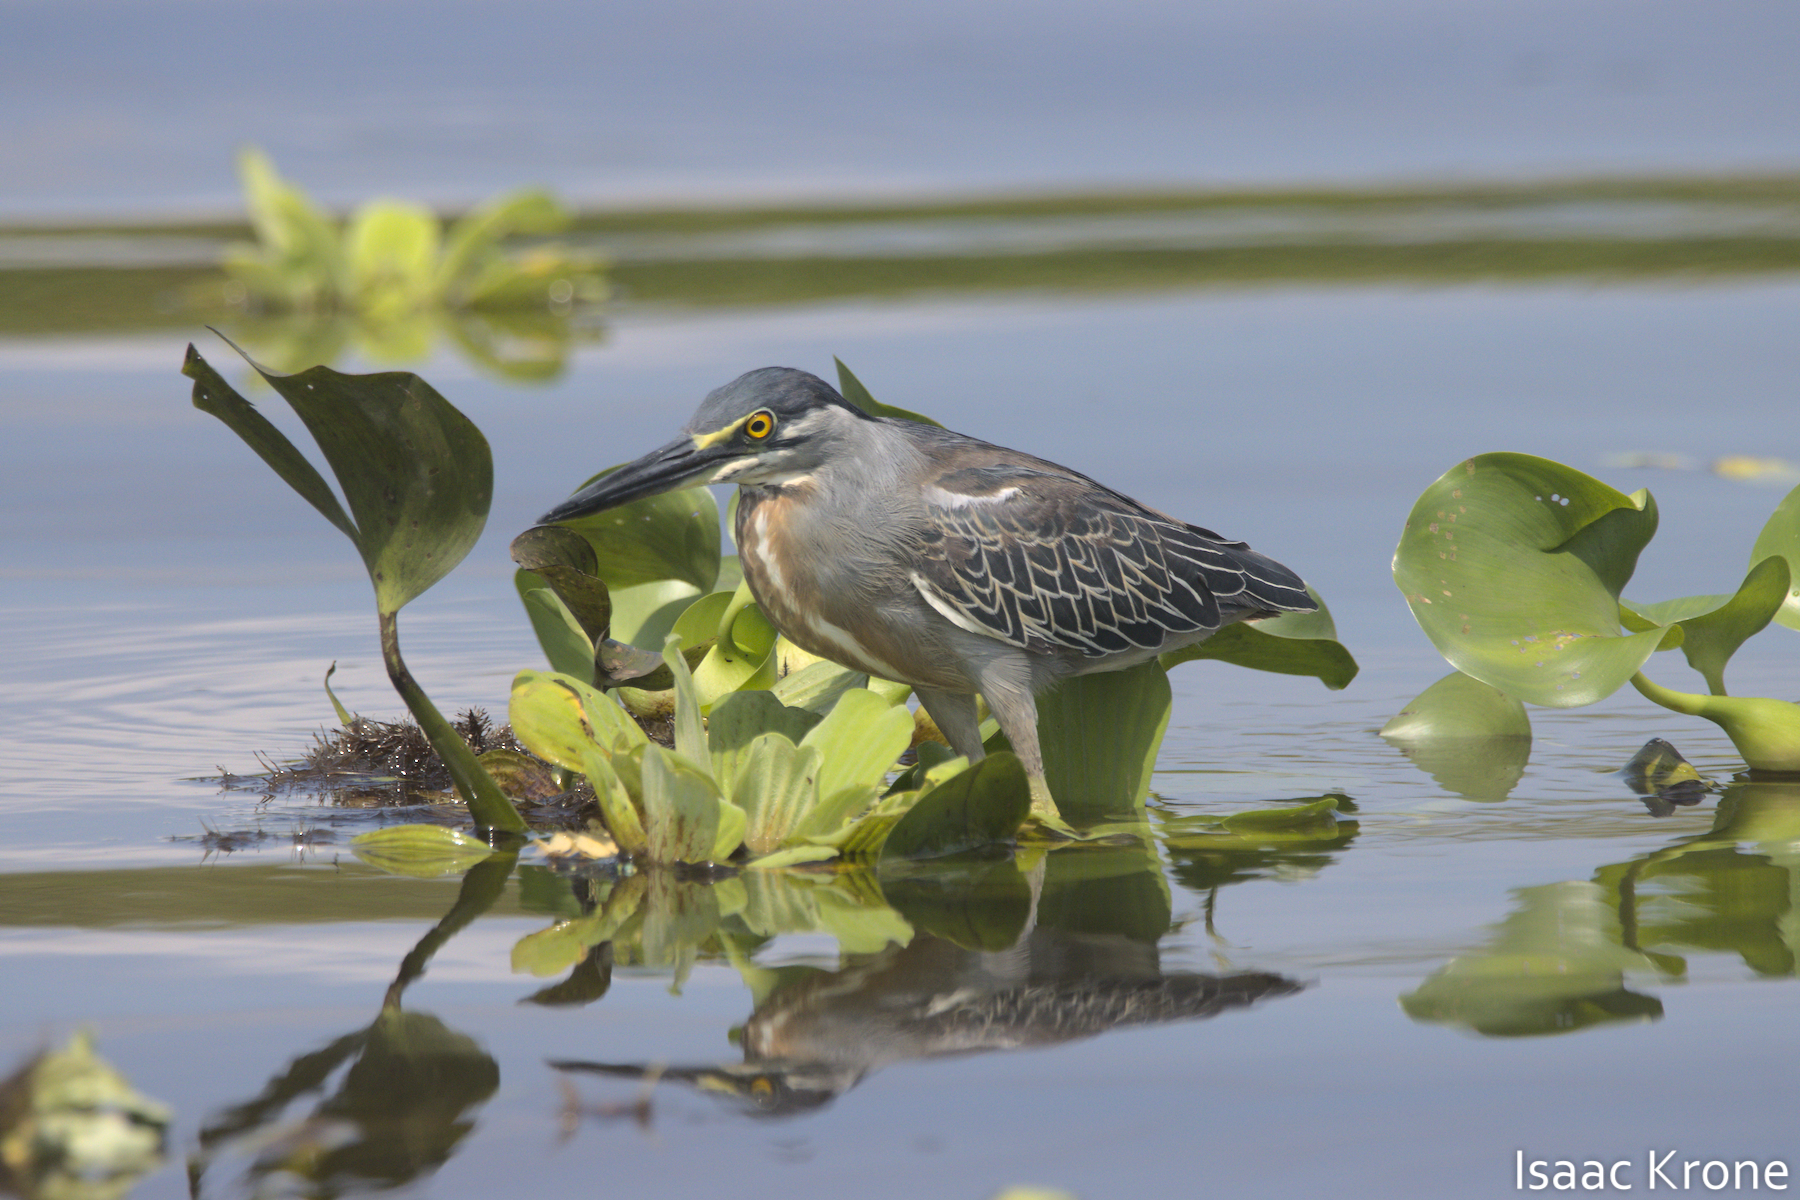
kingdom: Animalia
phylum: Chordata
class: Aves
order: Pelecaniformes
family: Ardeidae
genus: Butorides
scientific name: Butorides striata
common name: Striated heron
